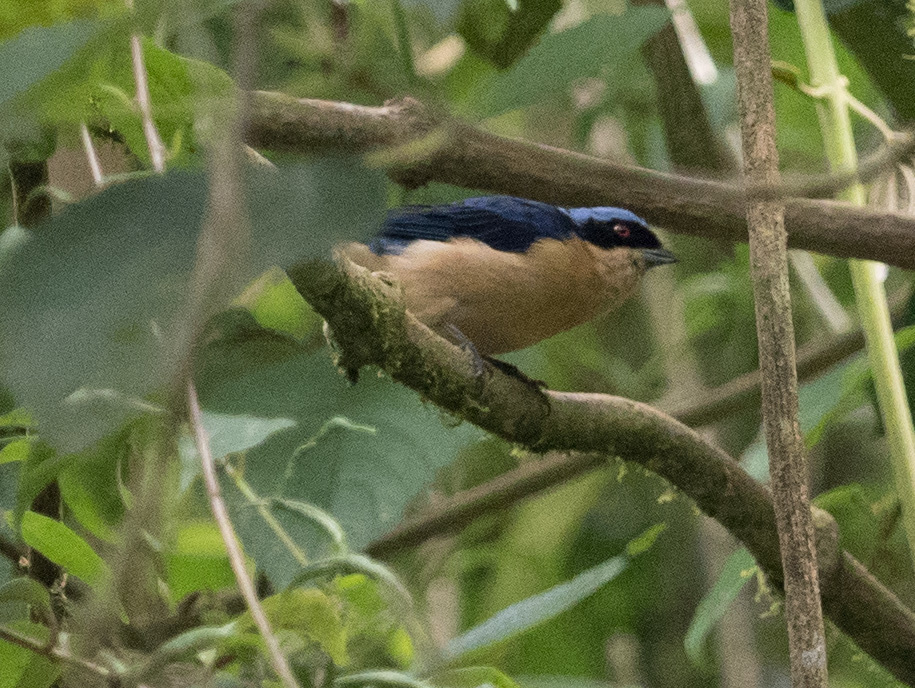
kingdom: Animalia
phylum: Chordata
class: Aves
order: Passeriformes
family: Thraupidae
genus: Pipraeidea
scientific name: Pipraeidea melanonota
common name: Fawn-breasted tanager
